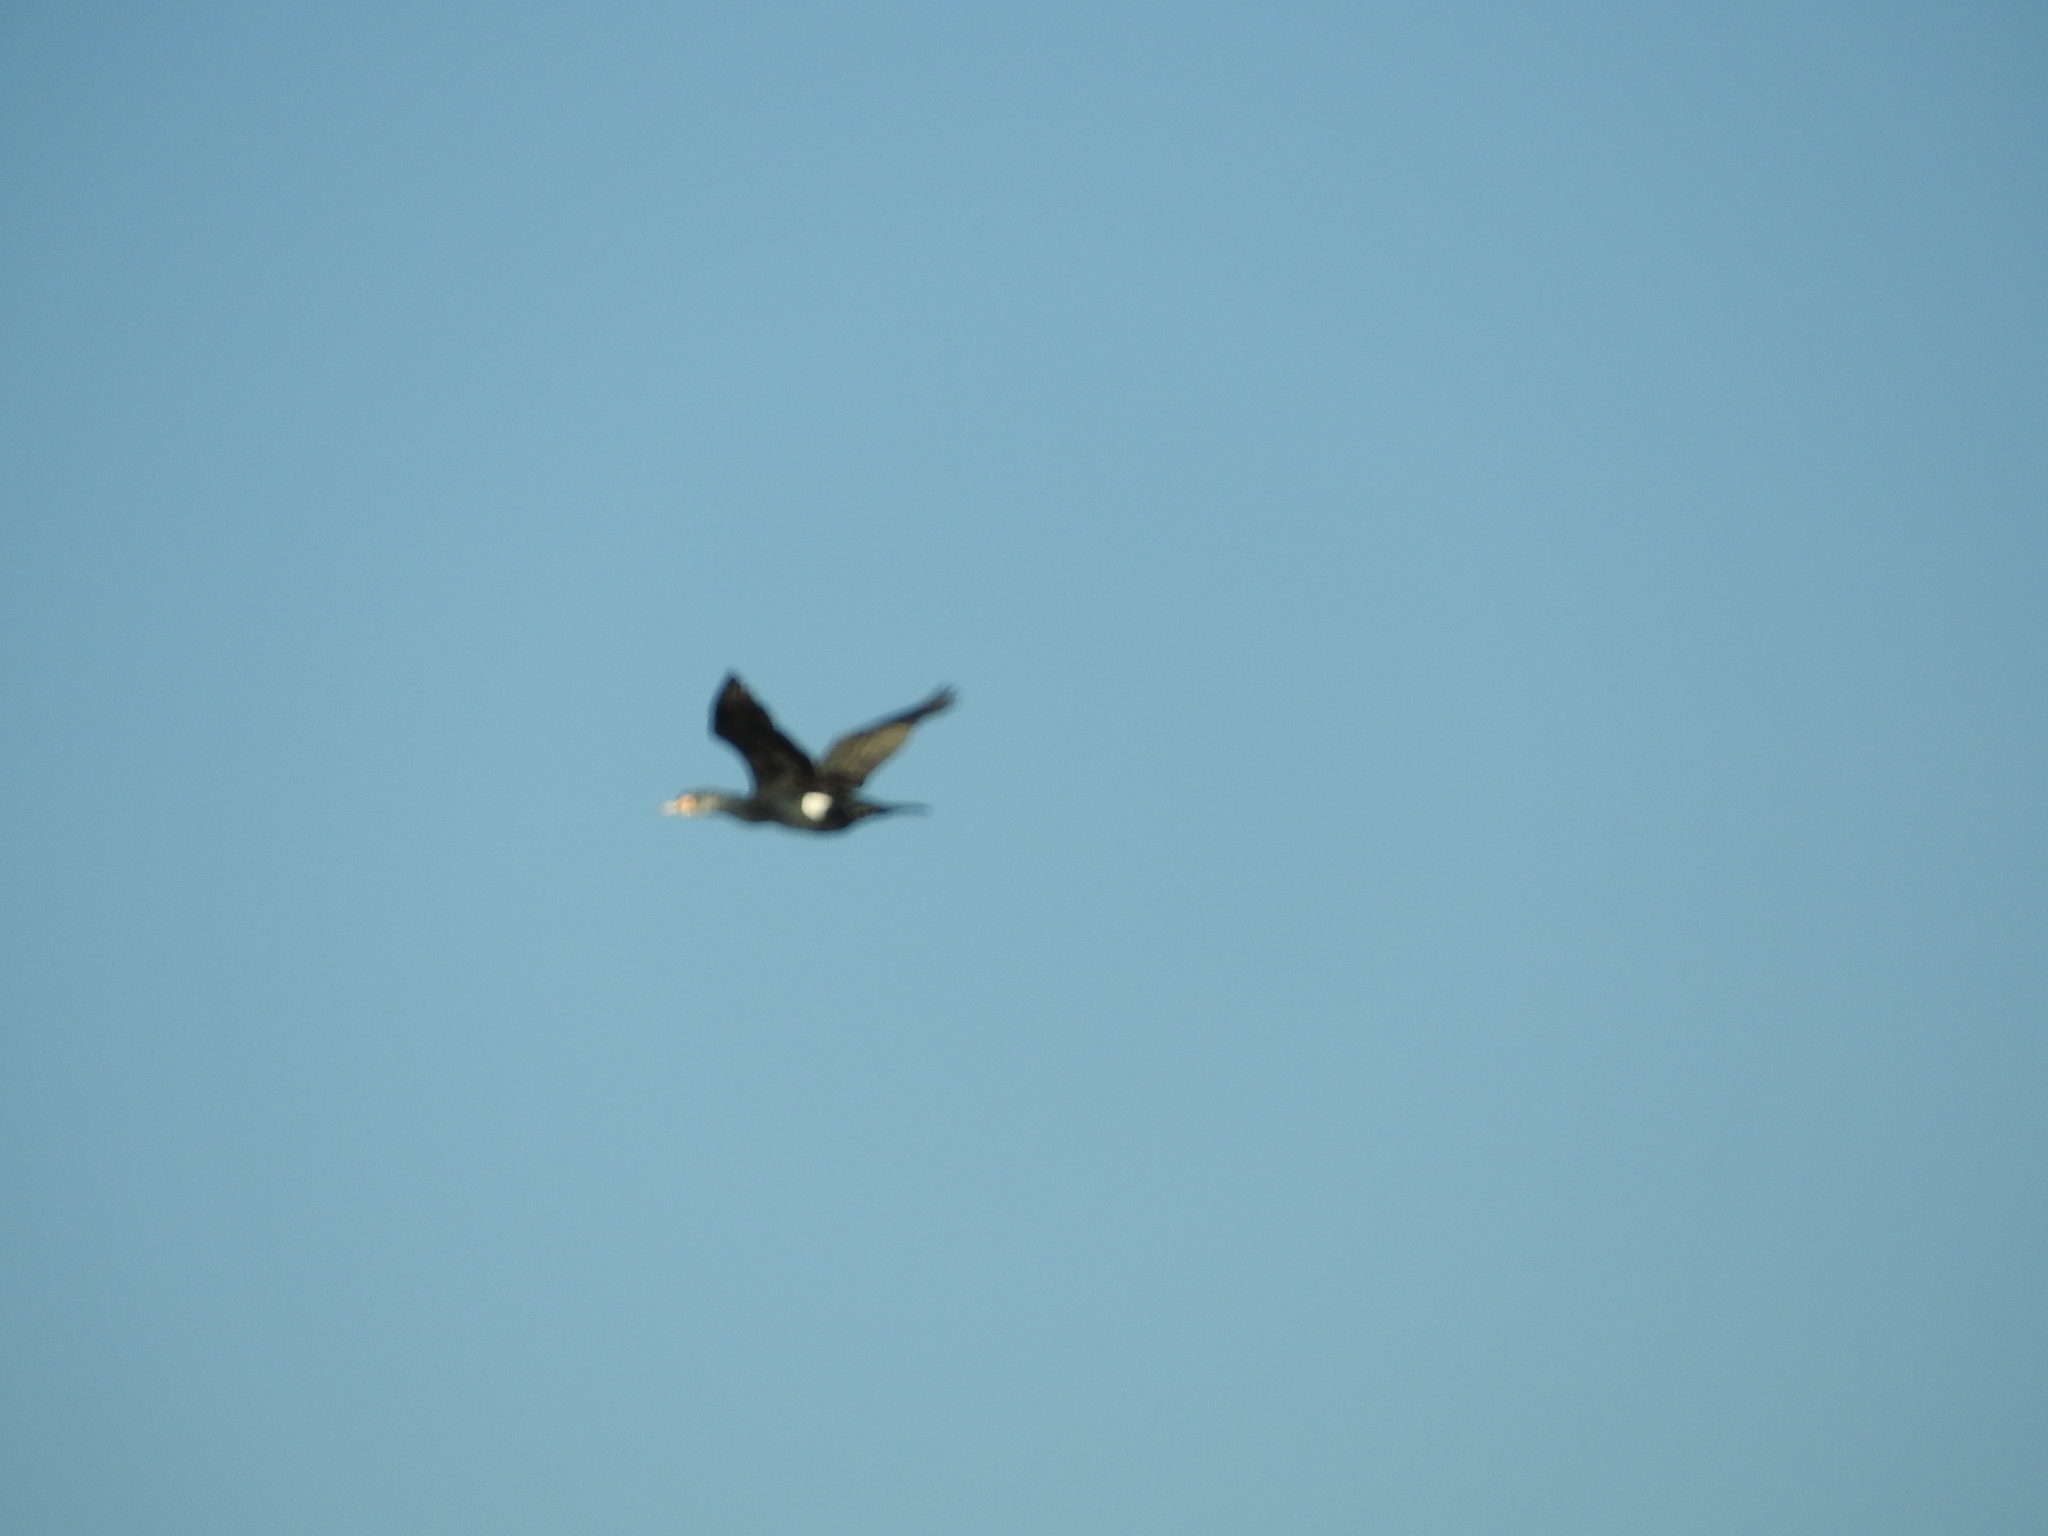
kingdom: Animalia
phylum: Chordata
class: Aves
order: Suliformes
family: Phalacrocoracidae
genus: Phalacrocorax
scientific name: Phalacrocorax carbo
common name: Great cormorant
